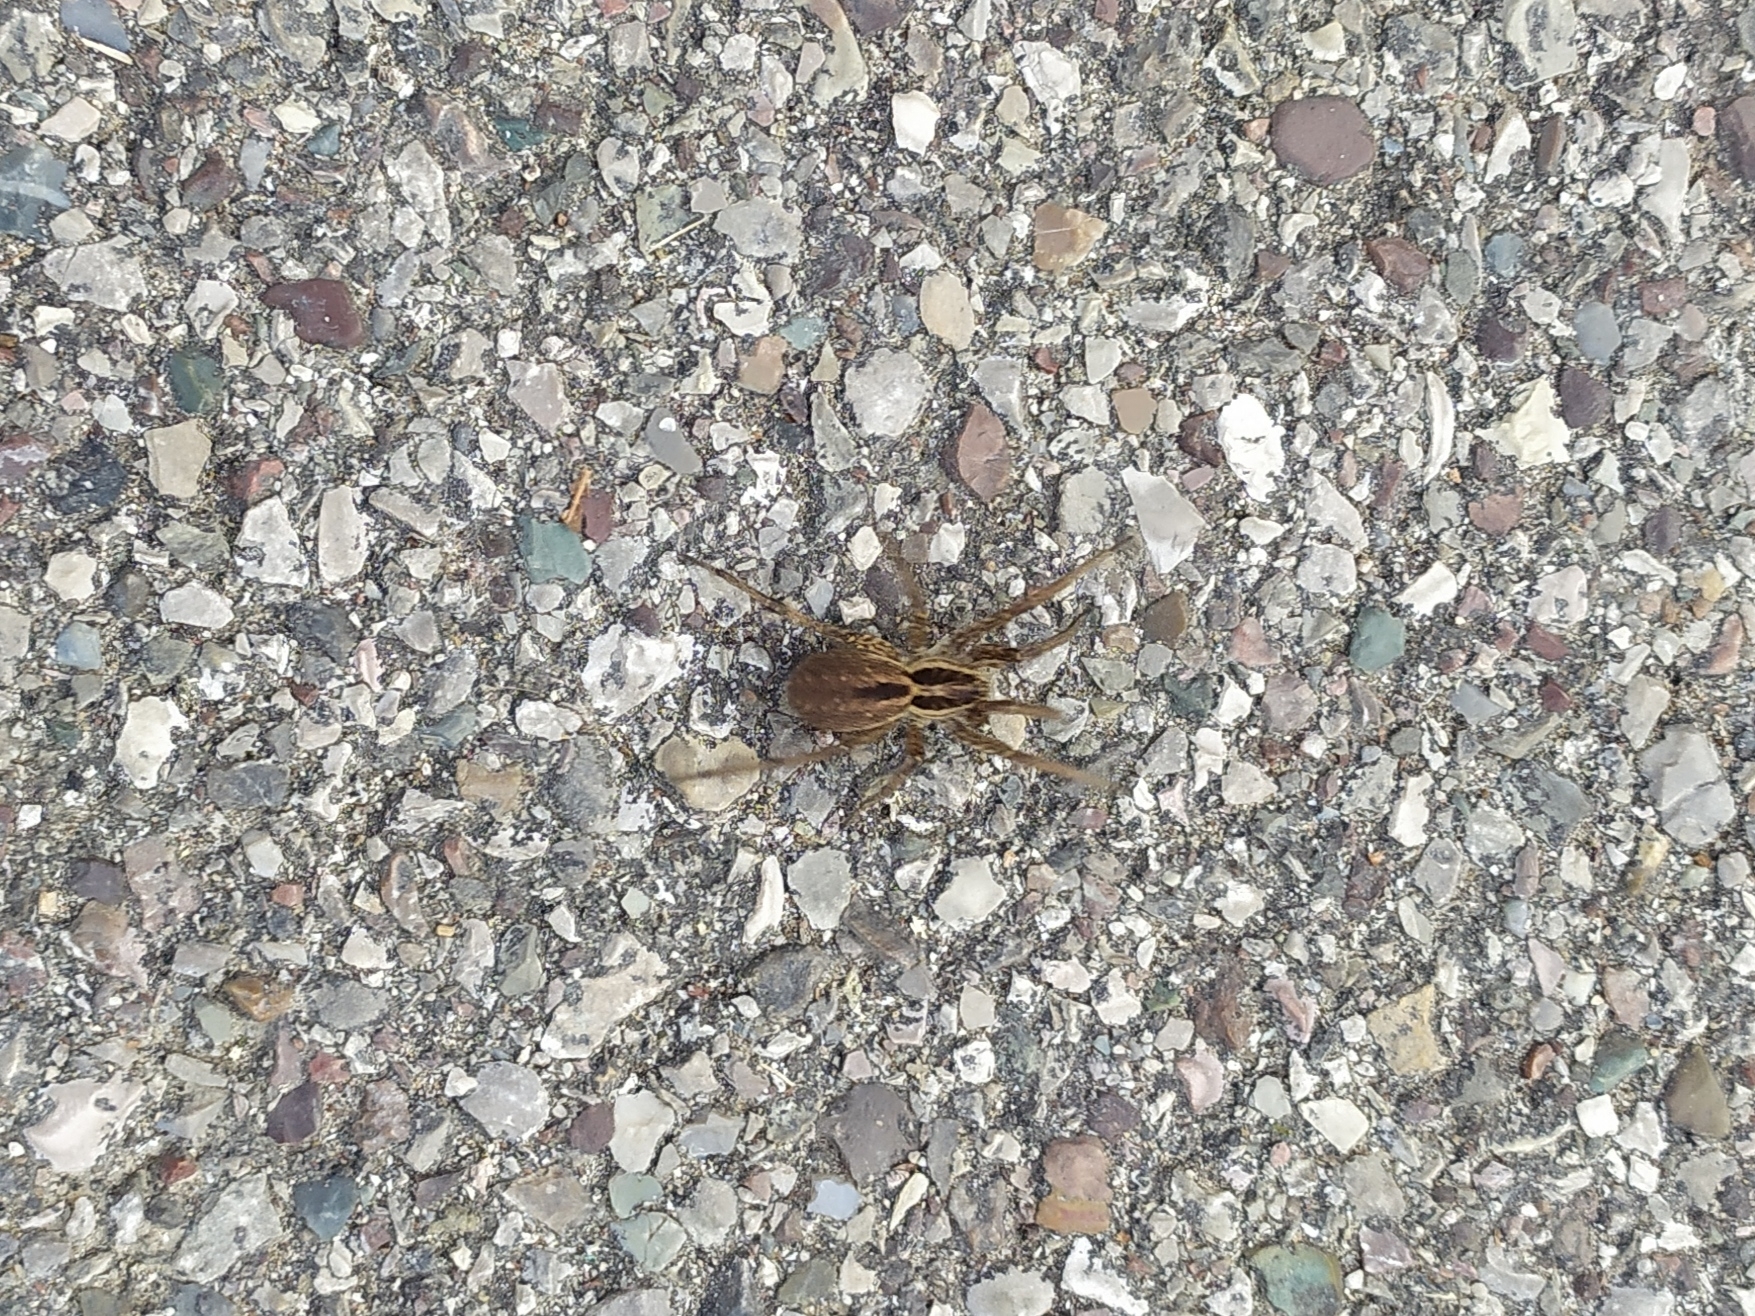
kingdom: Animalia
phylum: Arthropoda
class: Arachnida
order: Araneae
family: Lycosidae
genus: Hogna
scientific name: Hogna radiata
